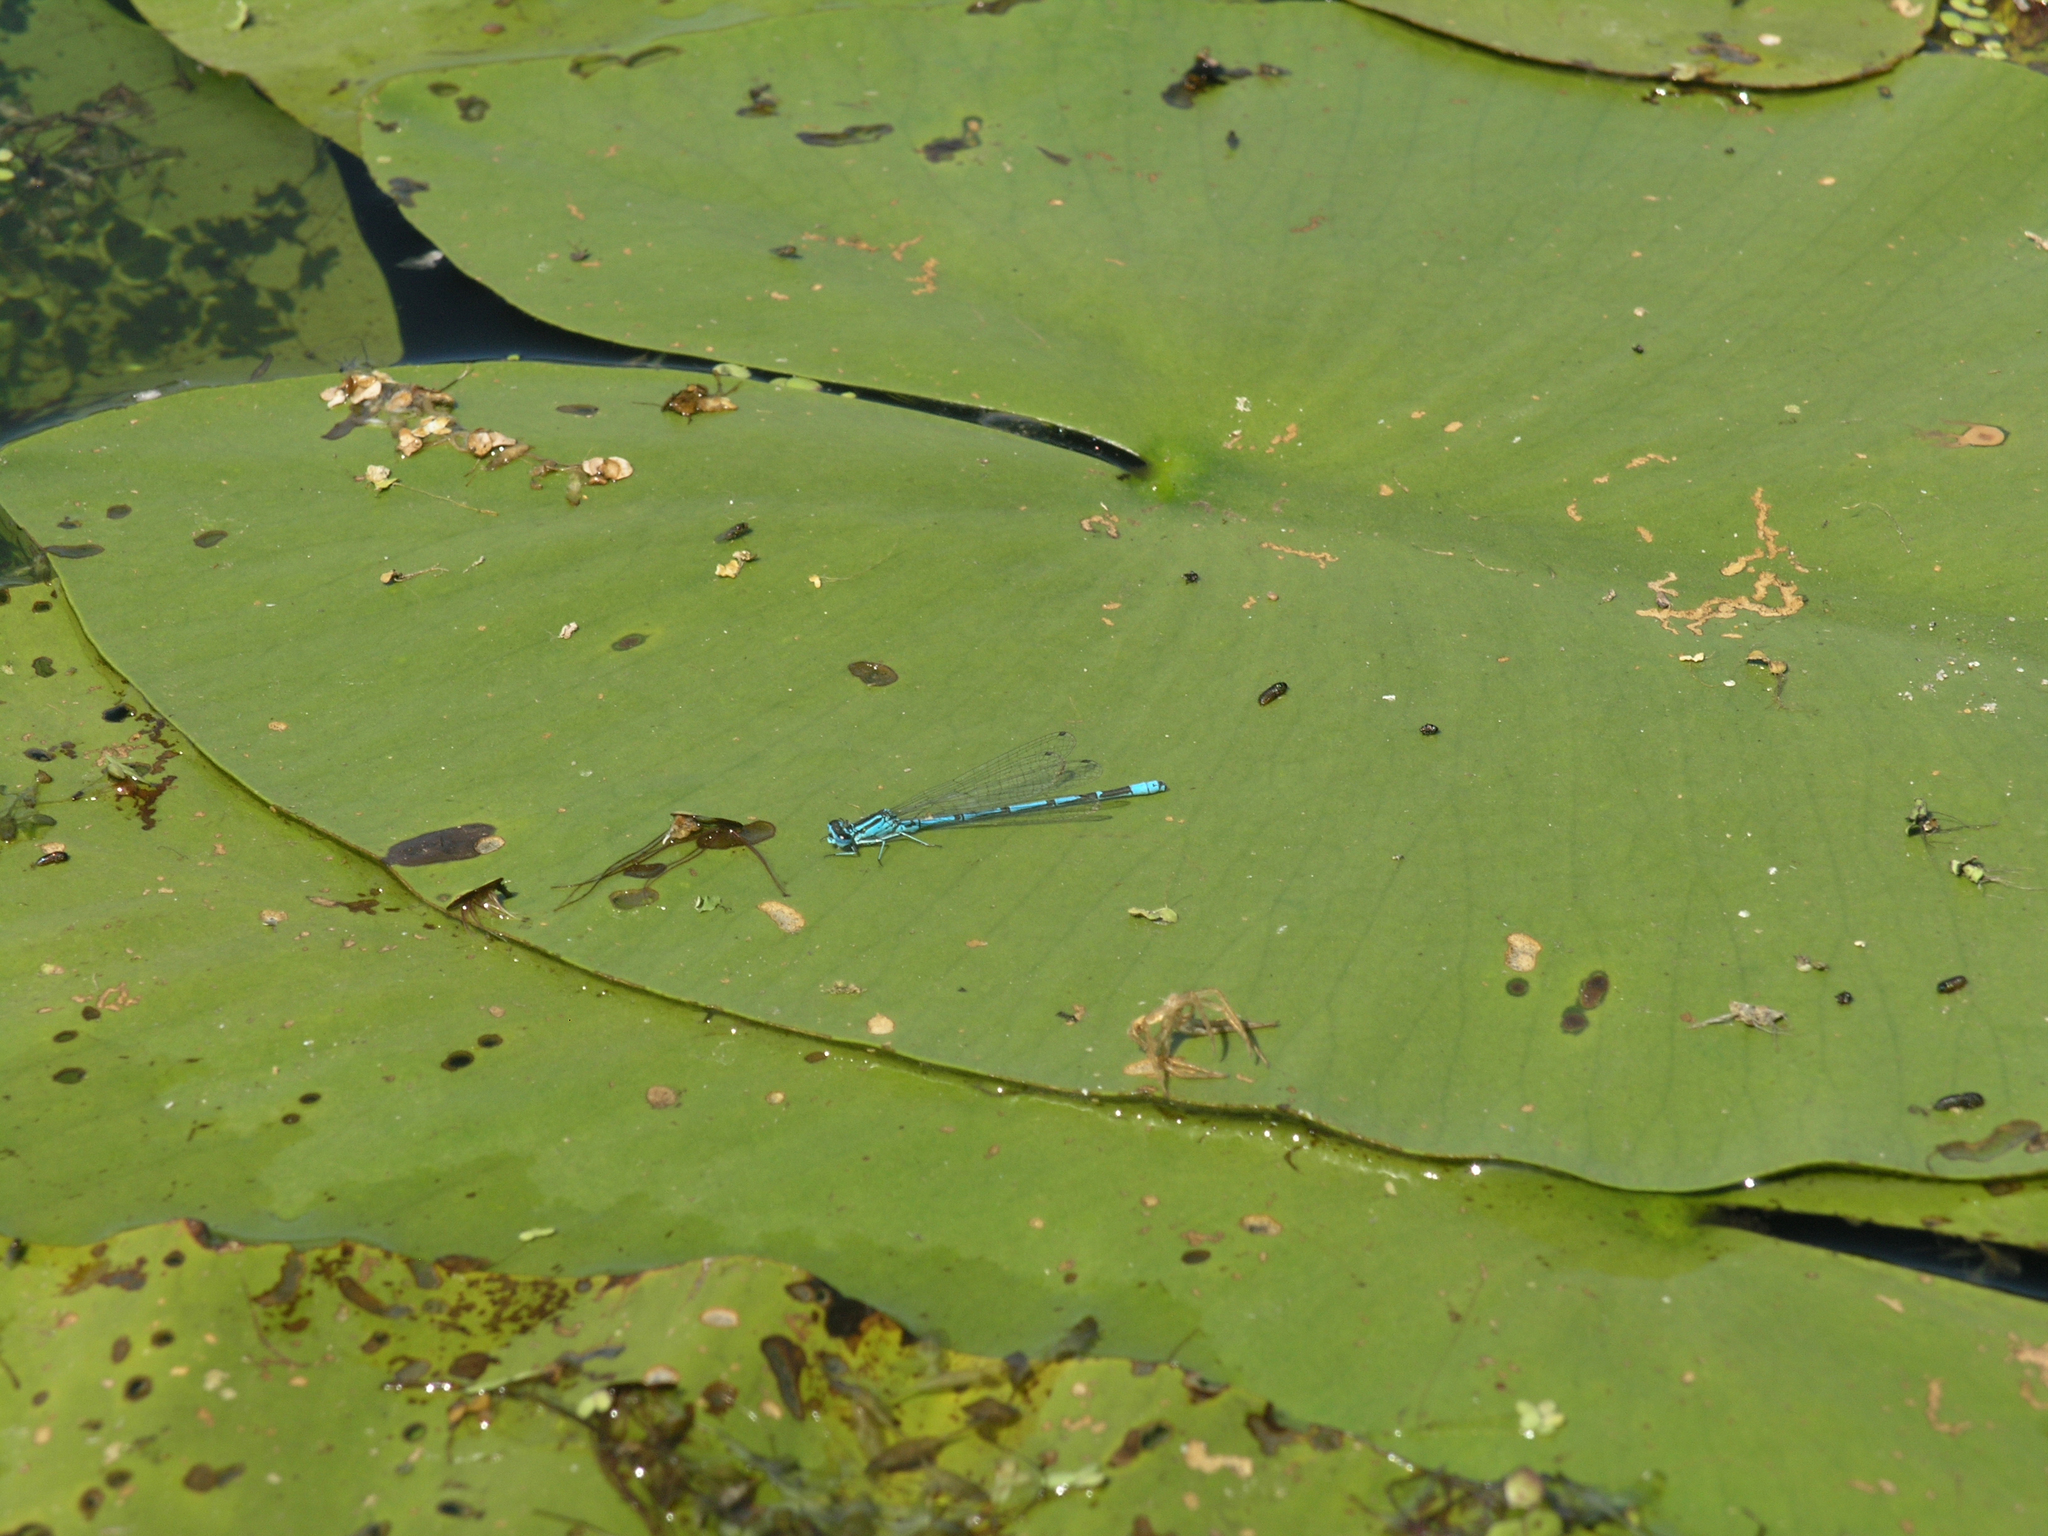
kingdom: Animalia
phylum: Arthropoda
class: Insecta
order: Odonata
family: Coenagrionidae
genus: Coenagrion
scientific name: Coenagrion puella
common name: Azure damselfly
